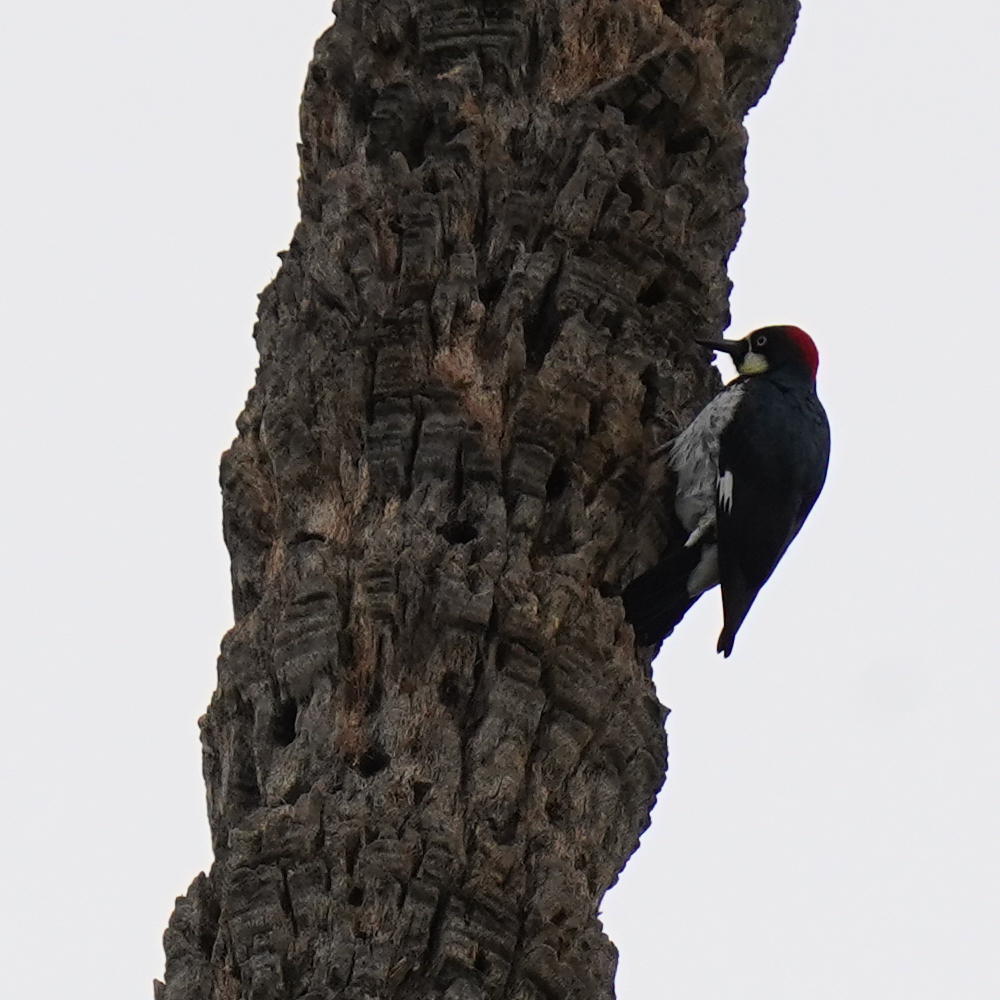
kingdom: Animalia
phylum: Chordata
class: Aves
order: Piciformes
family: Picidae
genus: Melanerpes
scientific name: Melanerpes formicivorus
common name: Acorn woodpecker
